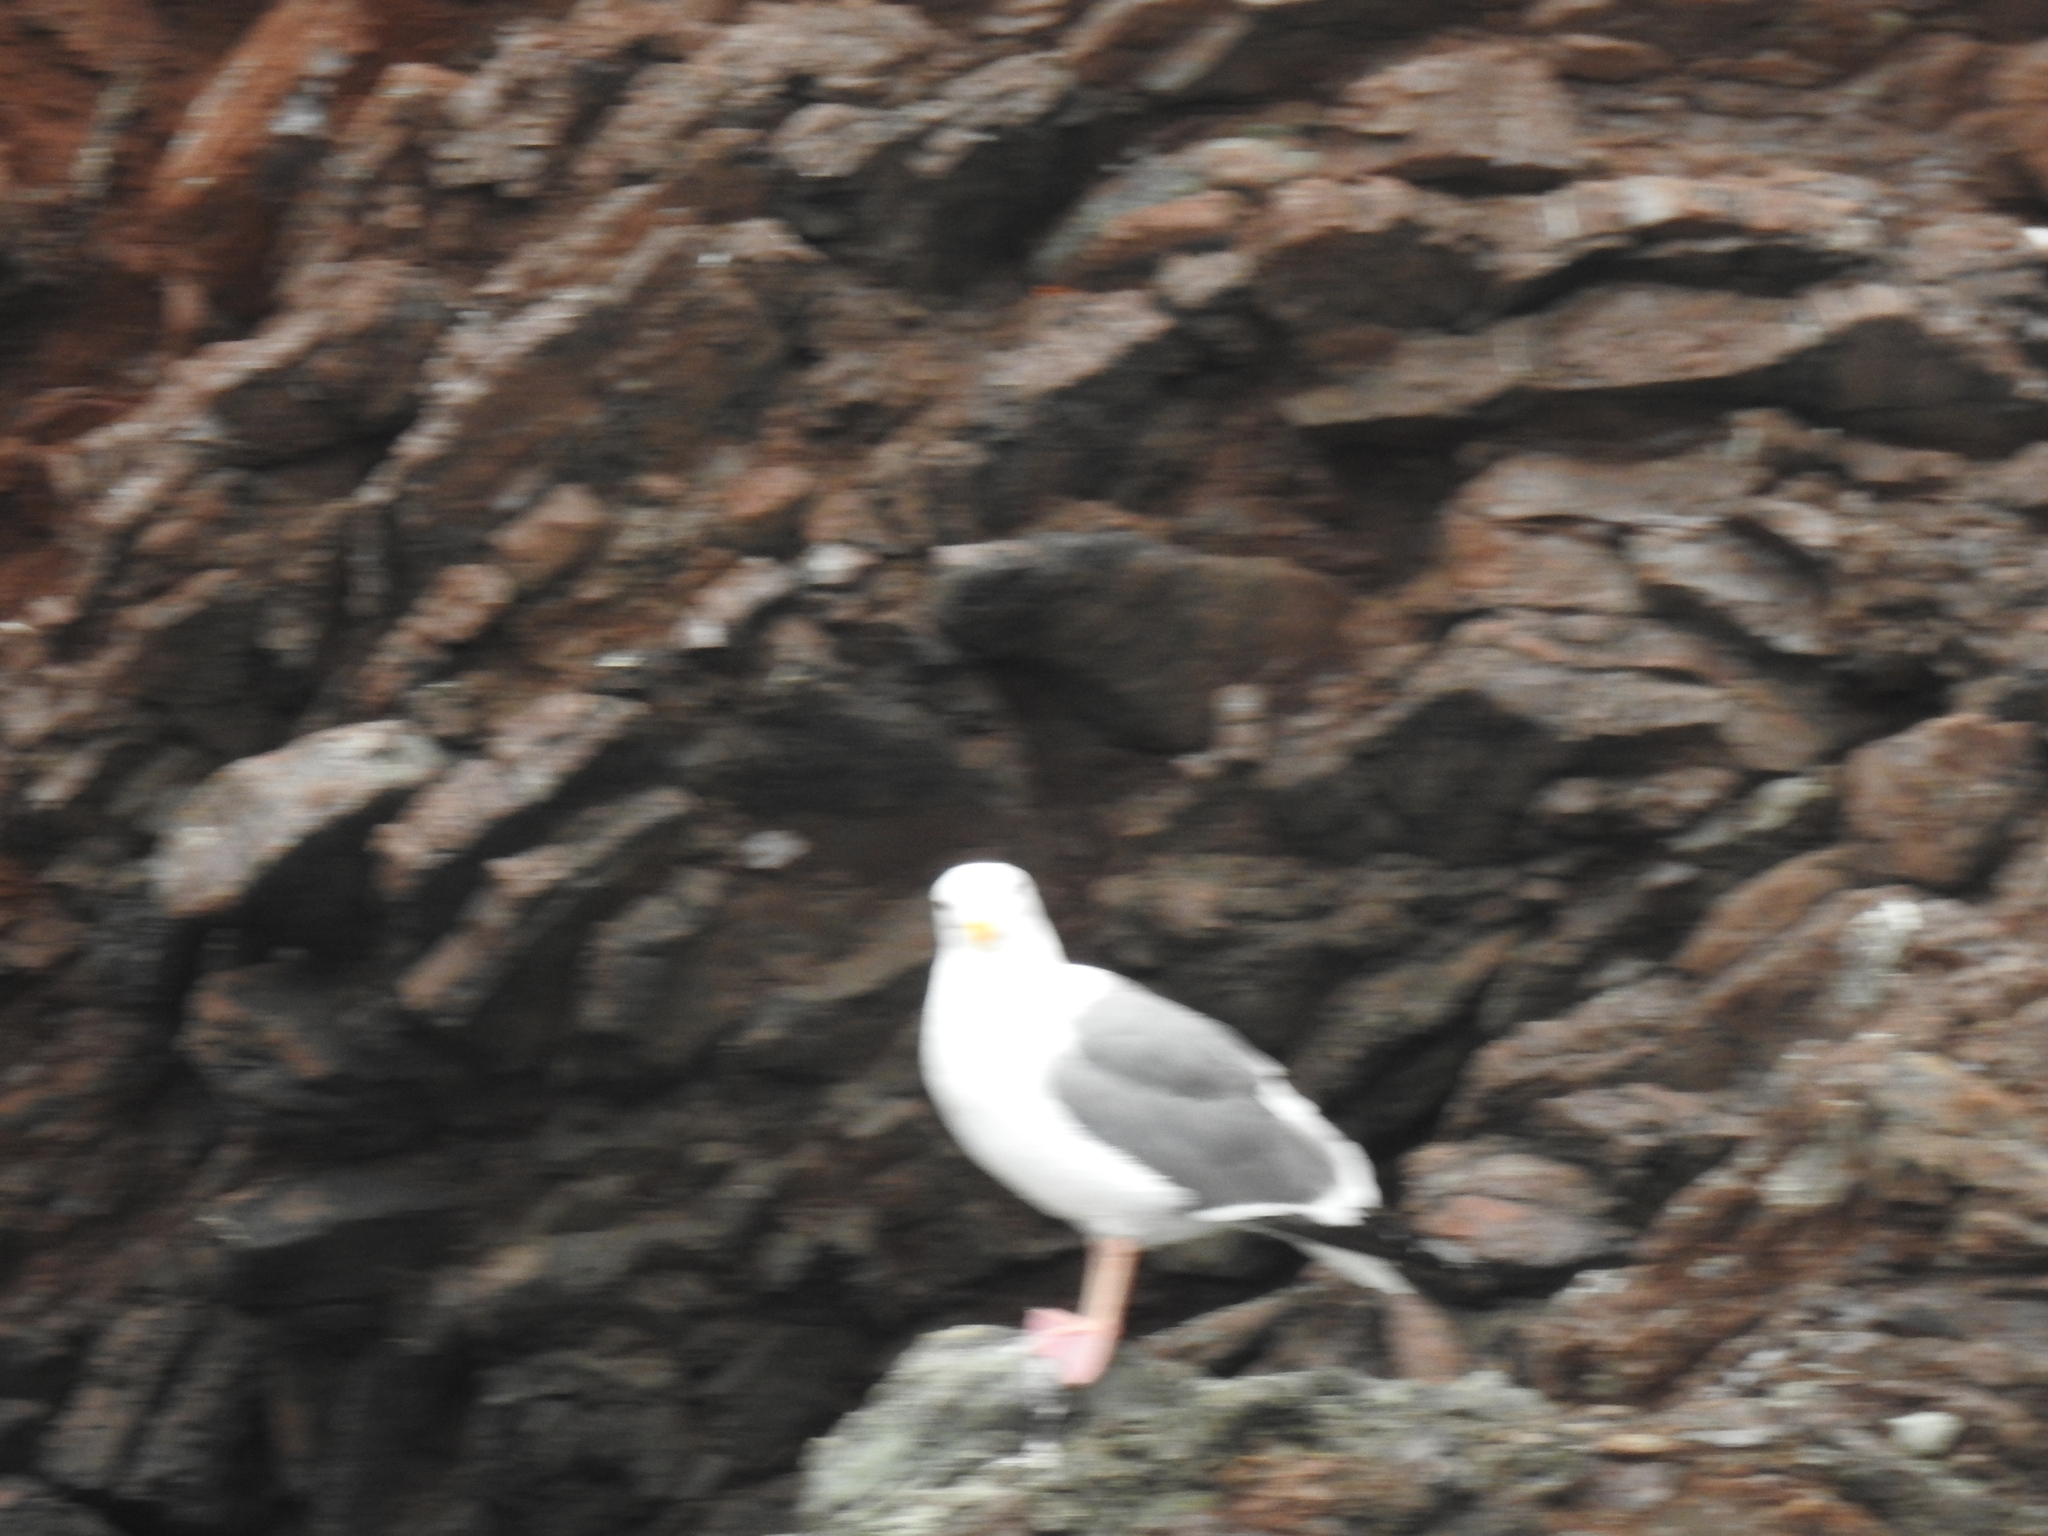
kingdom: Animalia
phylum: Chordata
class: Aves
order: Charadriiformes
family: Laridae
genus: Larus
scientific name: Larus occidentalis
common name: Western gull
